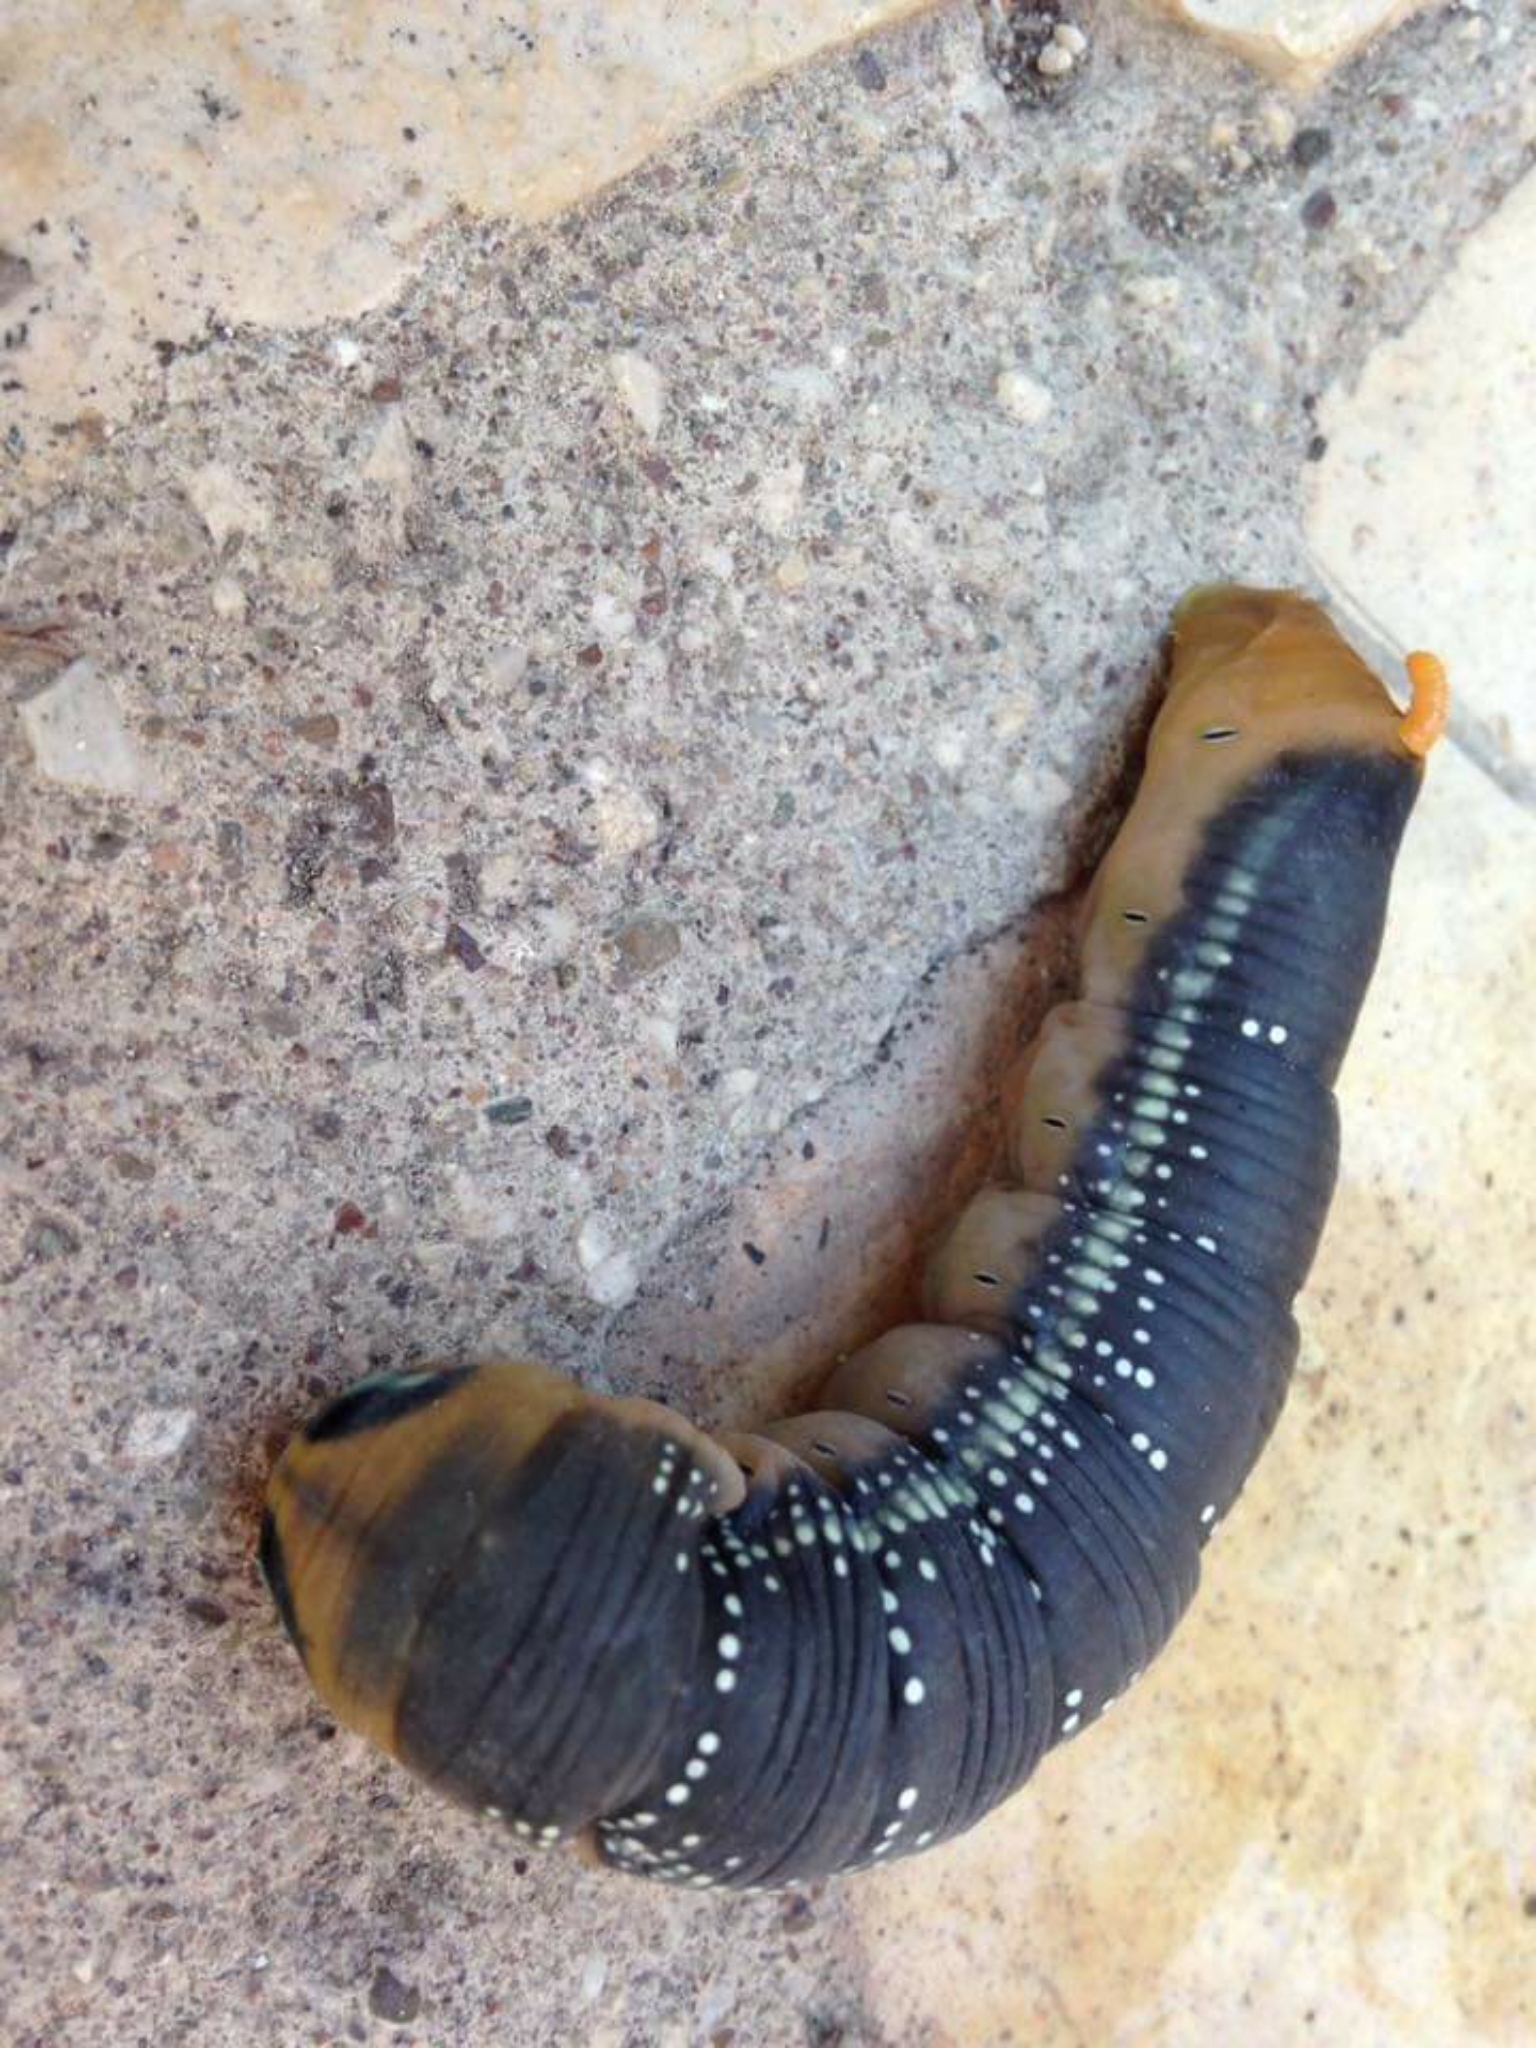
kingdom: Animalia
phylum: Arthropoda
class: Insecta
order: Lepidoptera
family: Sphingidae
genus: Daphnis
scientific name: Daphnis nerii
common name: Oleander hawk-moth
